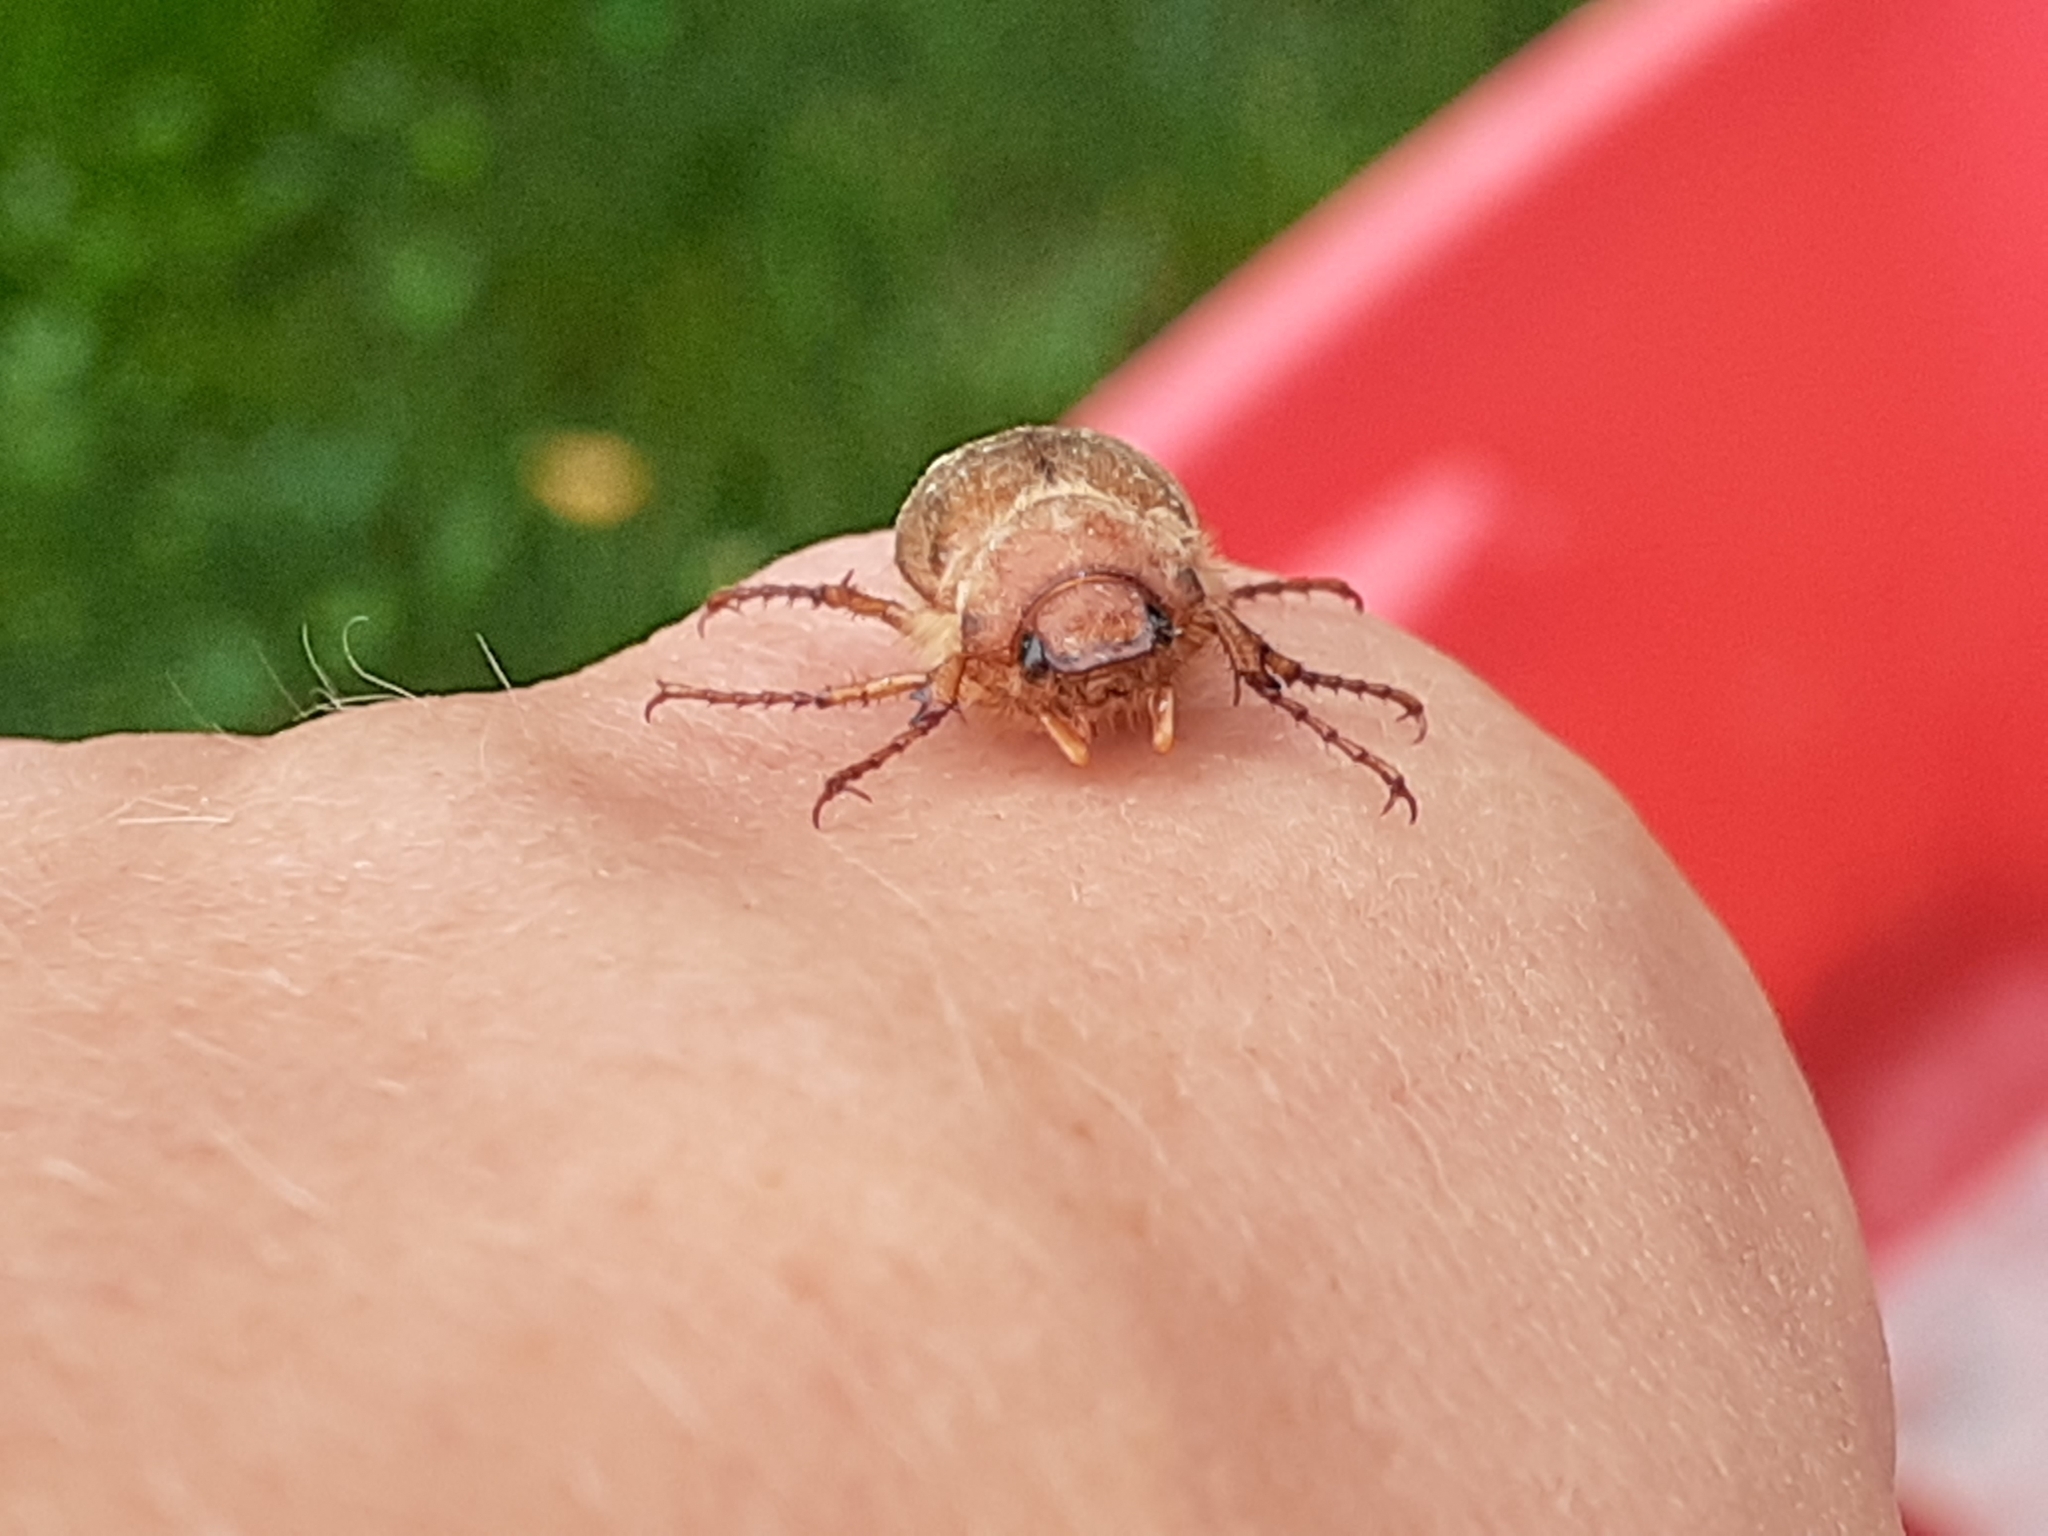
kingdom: Animalia
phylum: Arthropoda
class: Insecta
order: Coleoptera
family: Scarabaeidae
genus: Amphimallon
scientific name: Amphimallon majale
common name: European chafer
